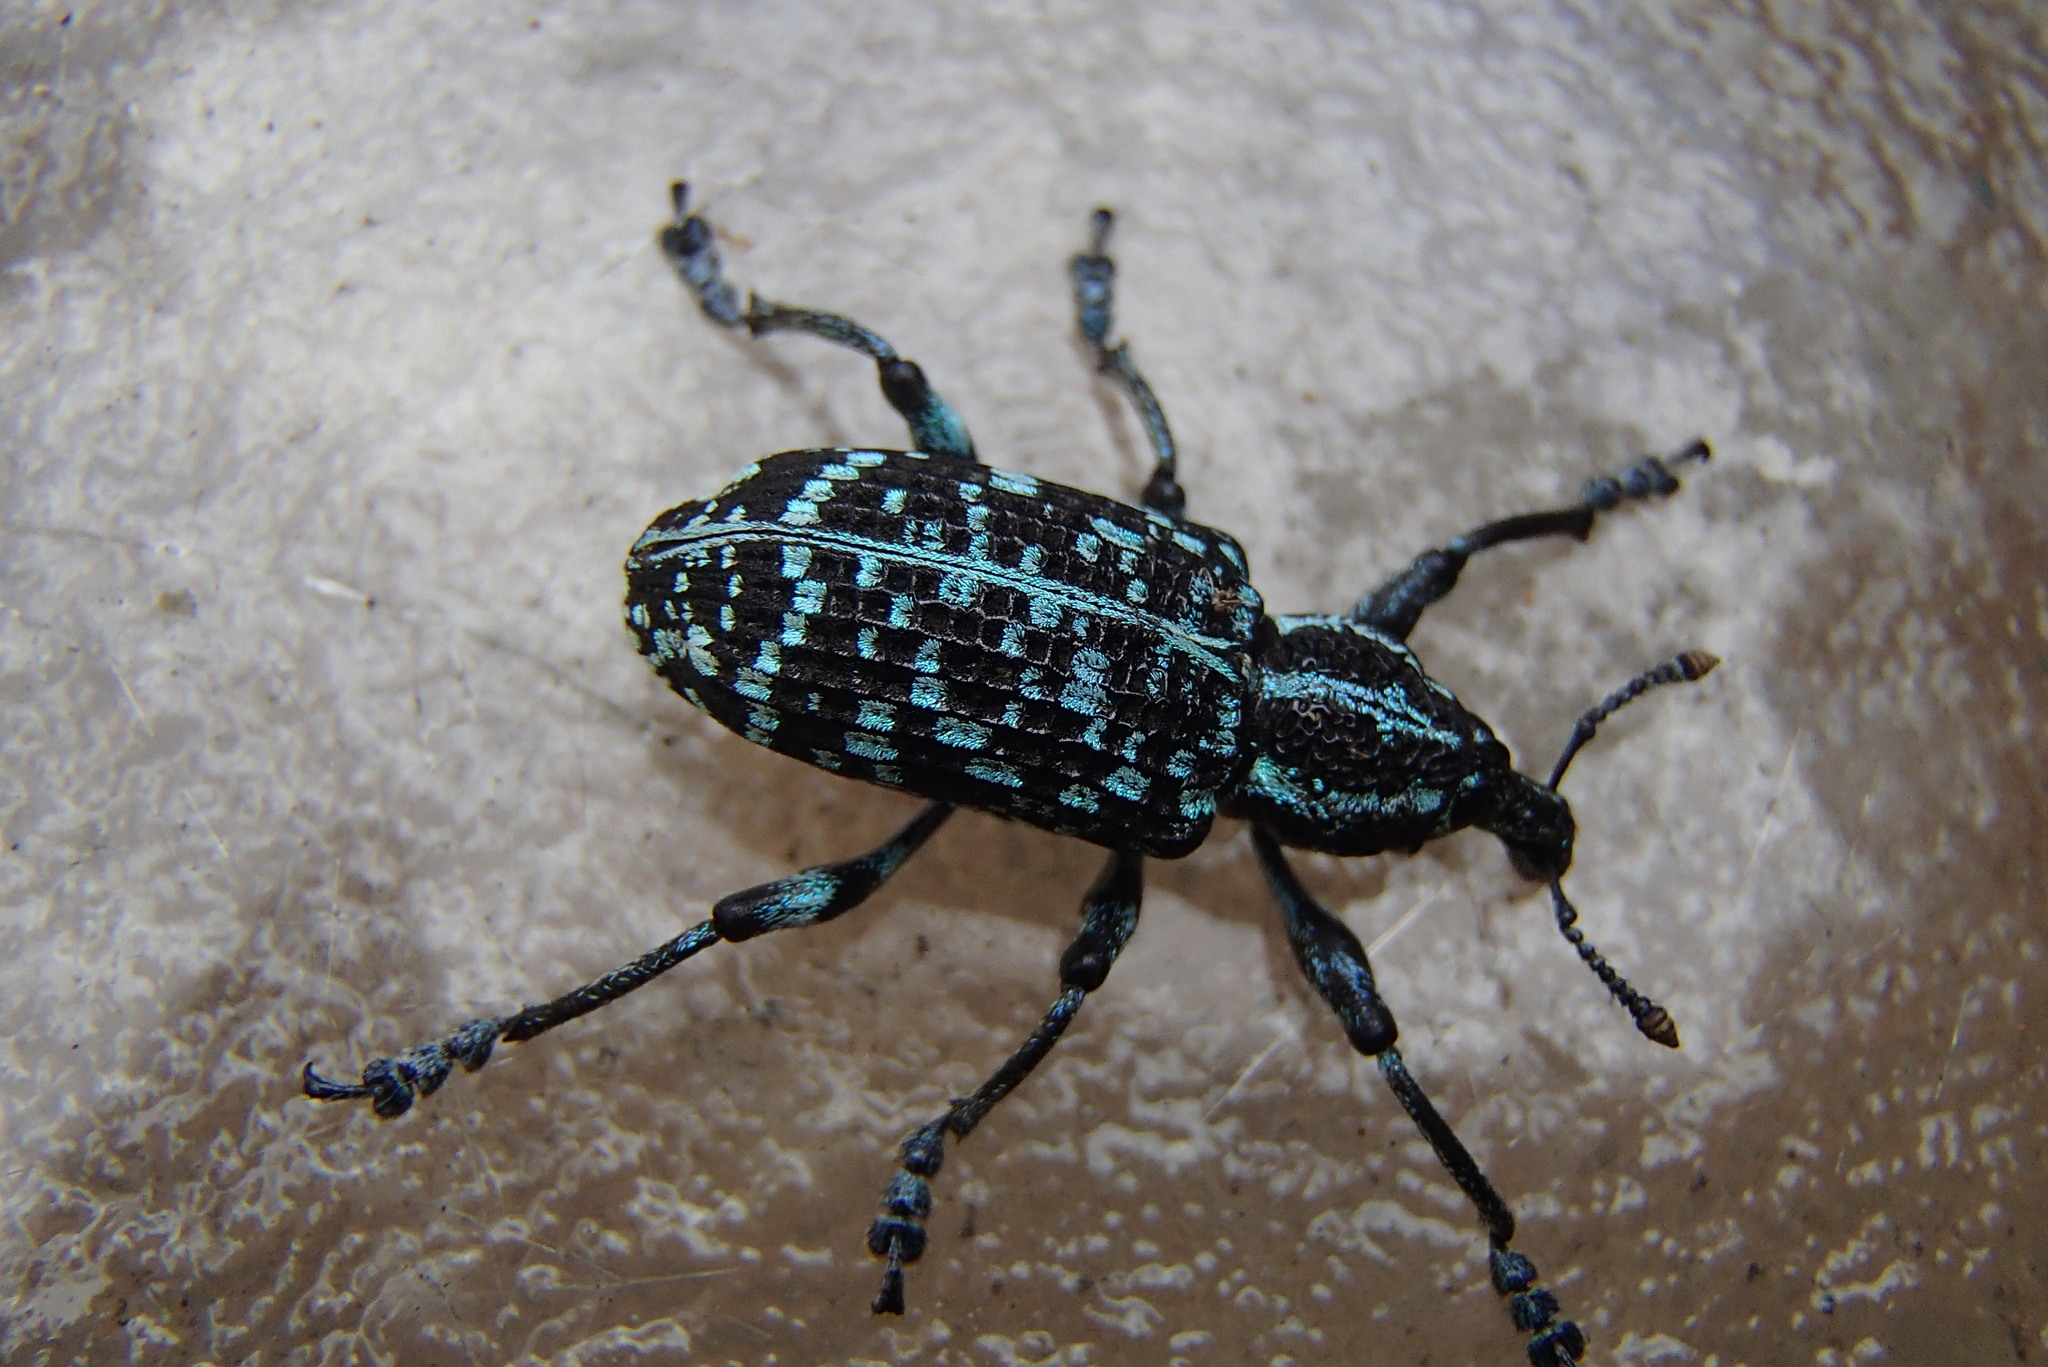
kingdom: Animalia
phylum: Arthropoda
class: Insecta
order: Coleoptera
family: Curculionidae
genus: Chrysolopus
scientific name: Chrysolopus spectabilis
